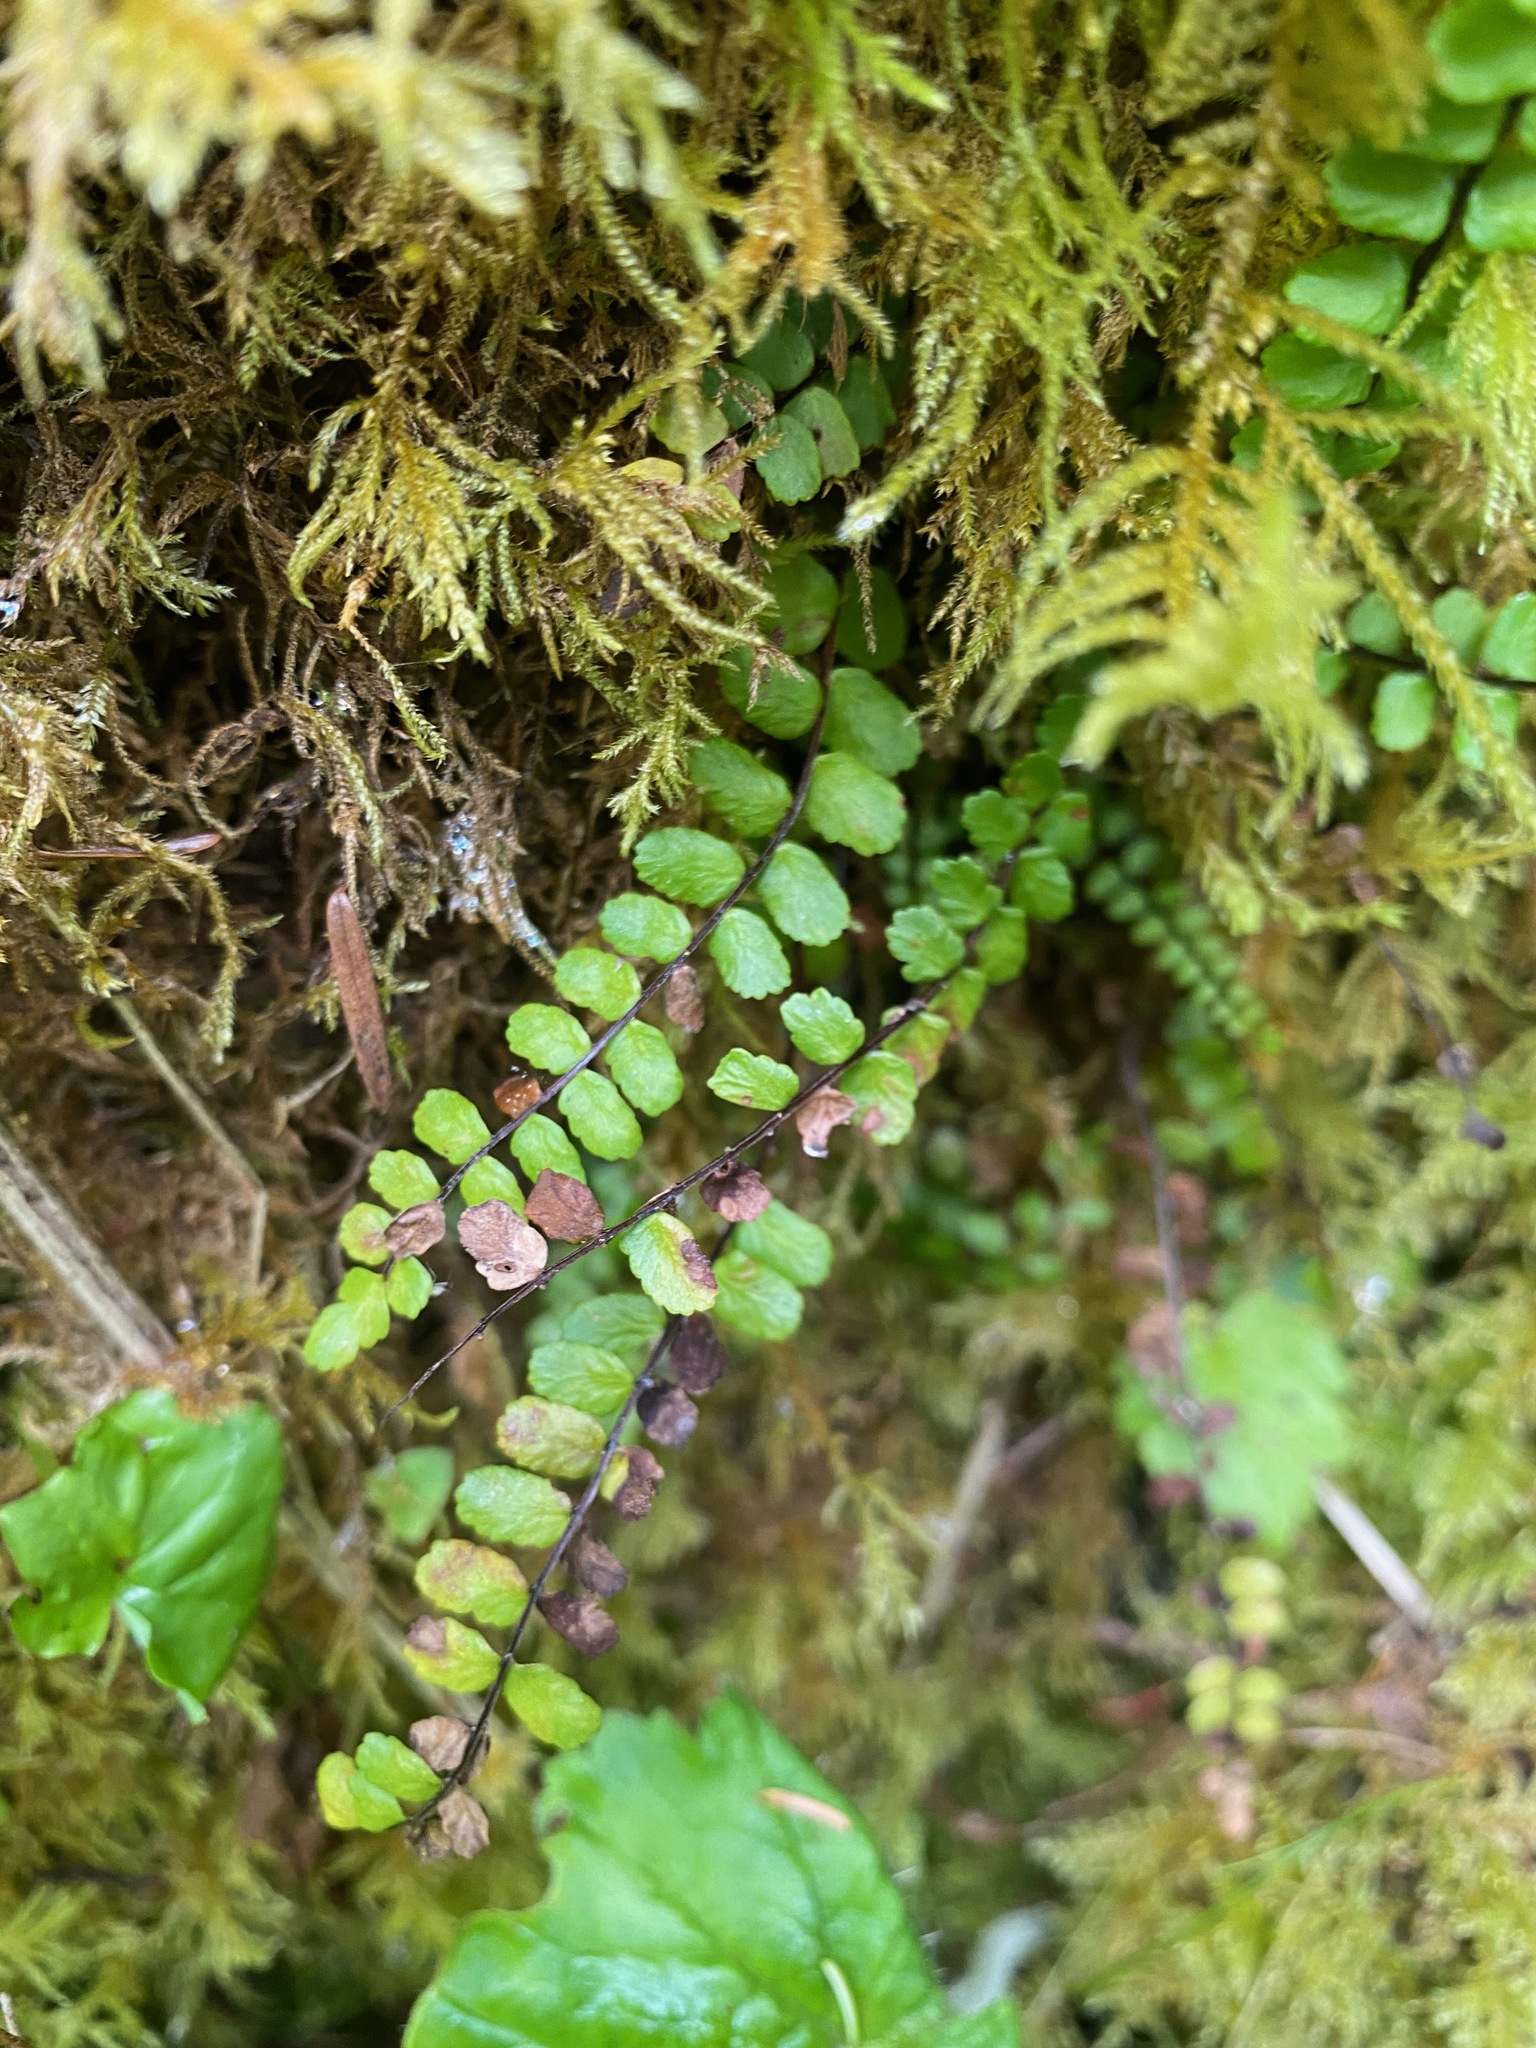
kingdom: Plantae
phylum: Tracheophyta
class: Polypodiopsida
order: Polypodiales
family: Aspleniaceae
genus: Asplenium
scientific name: Asplenium trichomanes
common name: Maidenhair spleenwort
